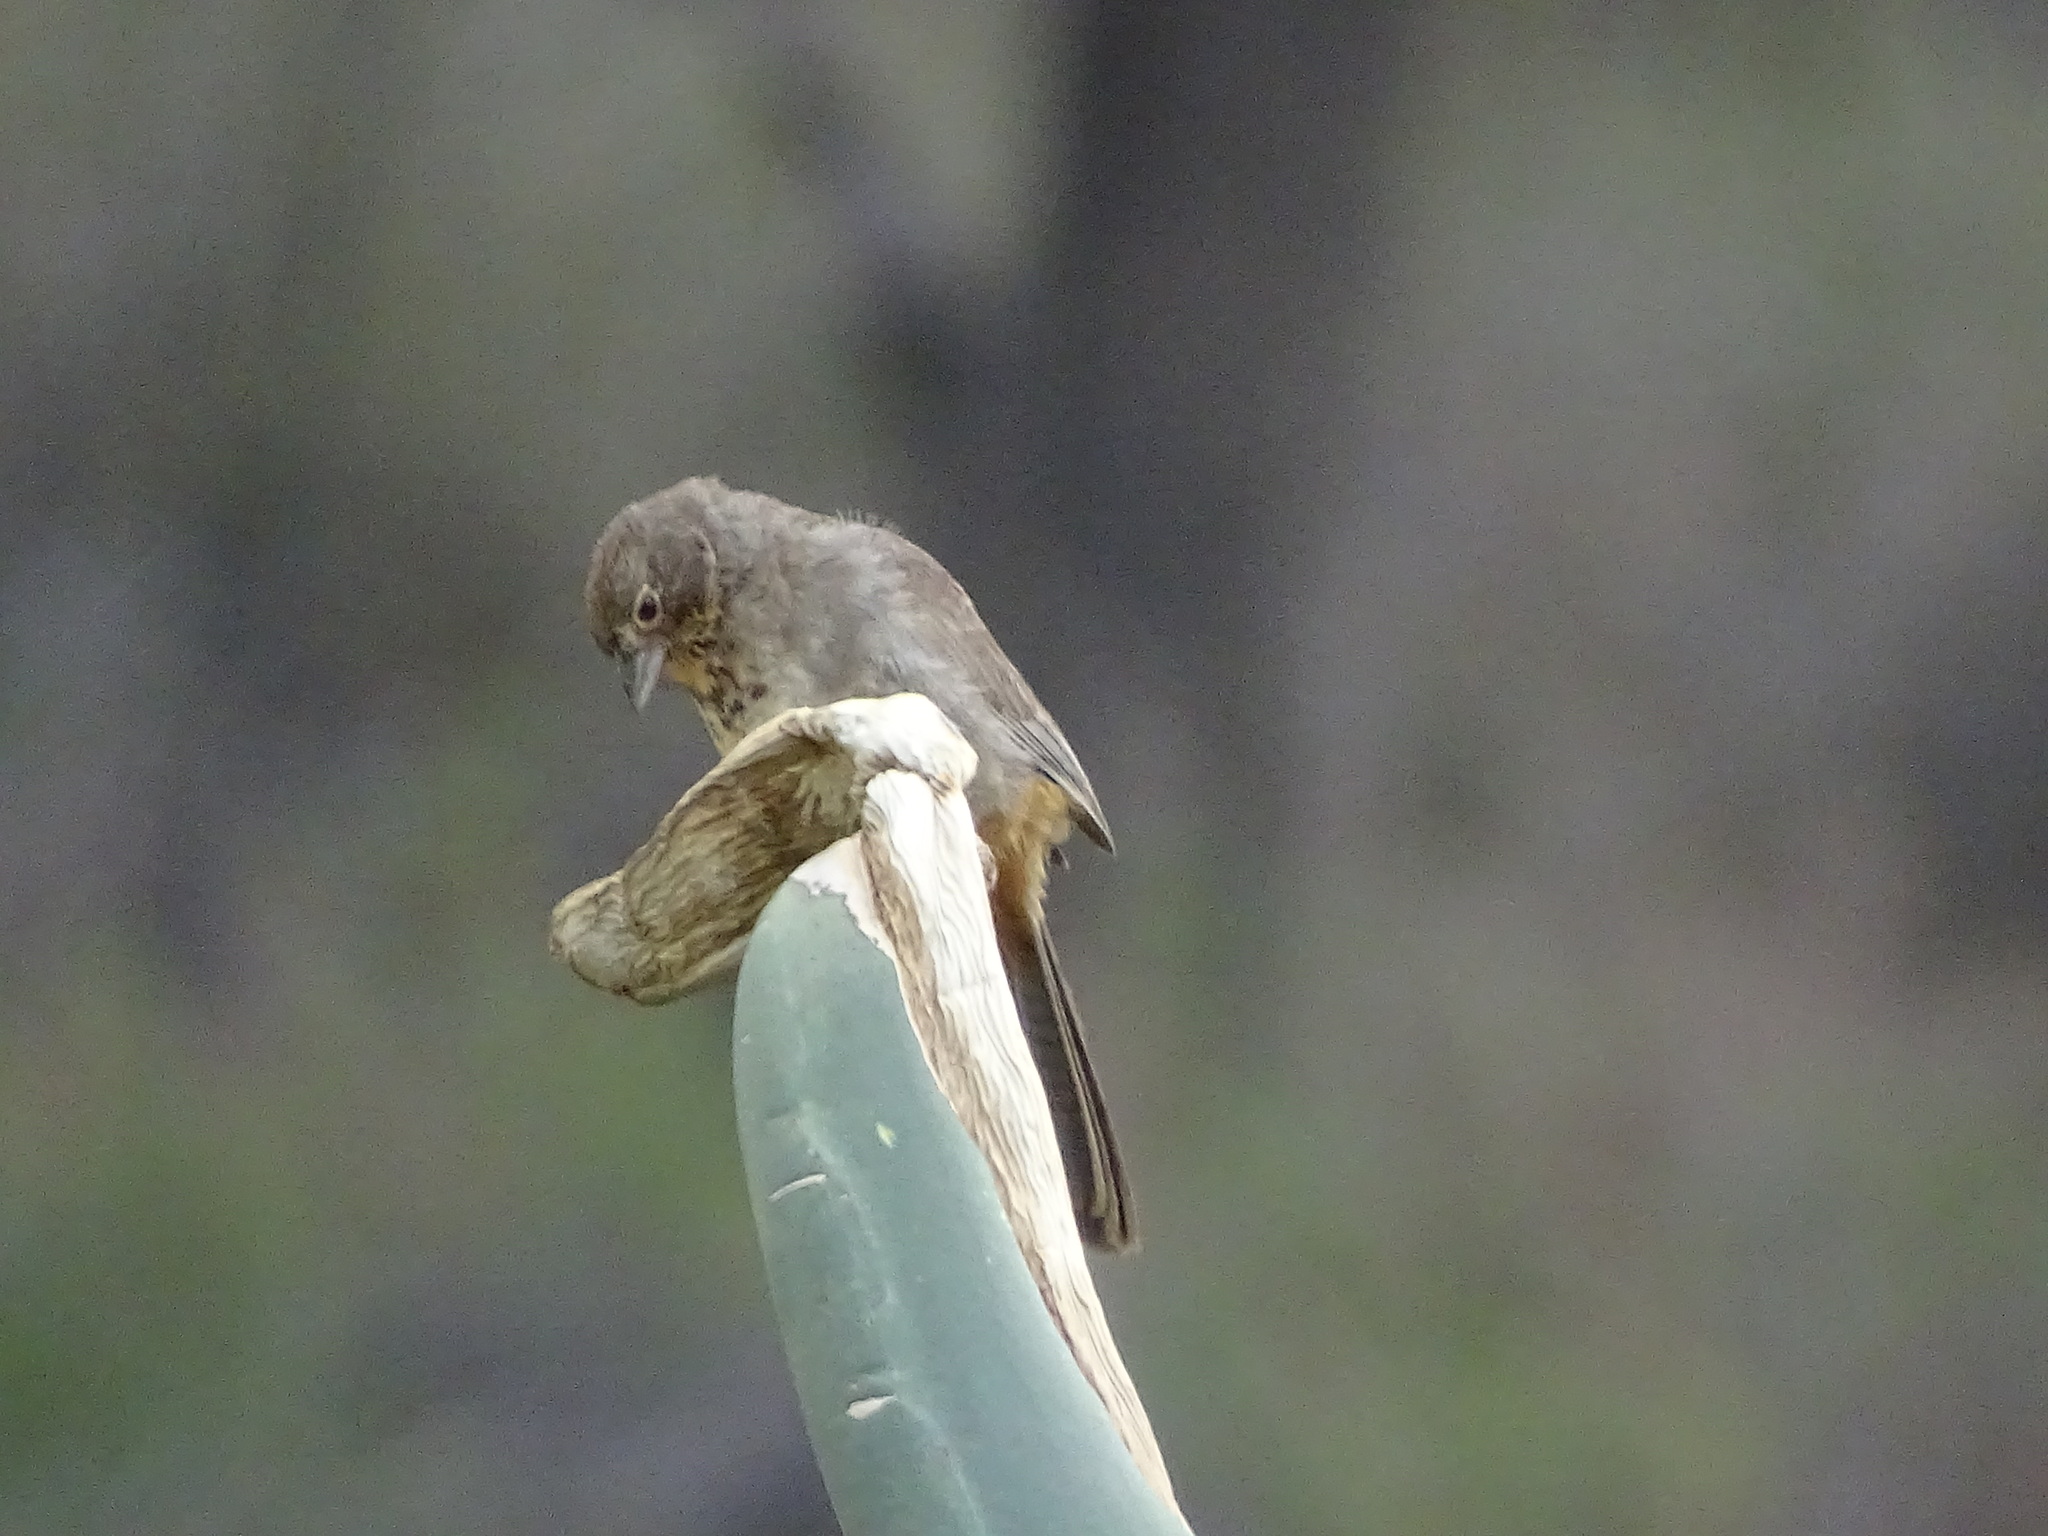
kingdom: Animalia
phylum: Chordata
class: Aves
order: Passeriformes
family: Passerellidae
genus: Melozone
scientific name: Melozone fusca
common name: Canyon towhee
